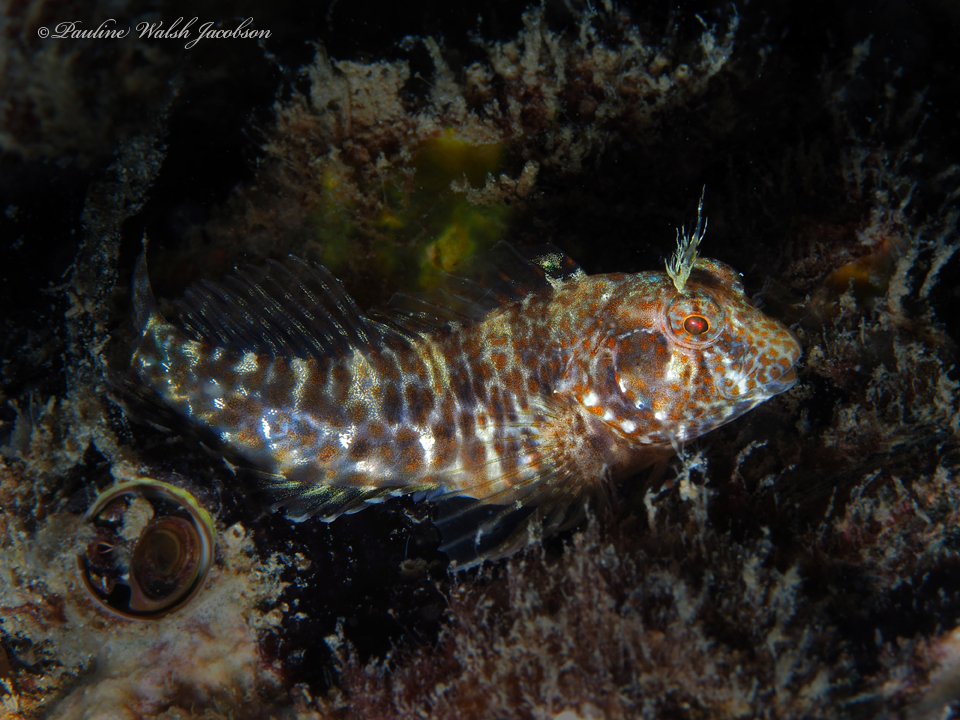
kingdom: Animalia
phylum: Chordata
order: Perciformes
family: Blenniidae
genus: Hypleurochilus
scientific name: Hypleurochilus pseudoaequipinnis
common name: Oyster blenny
